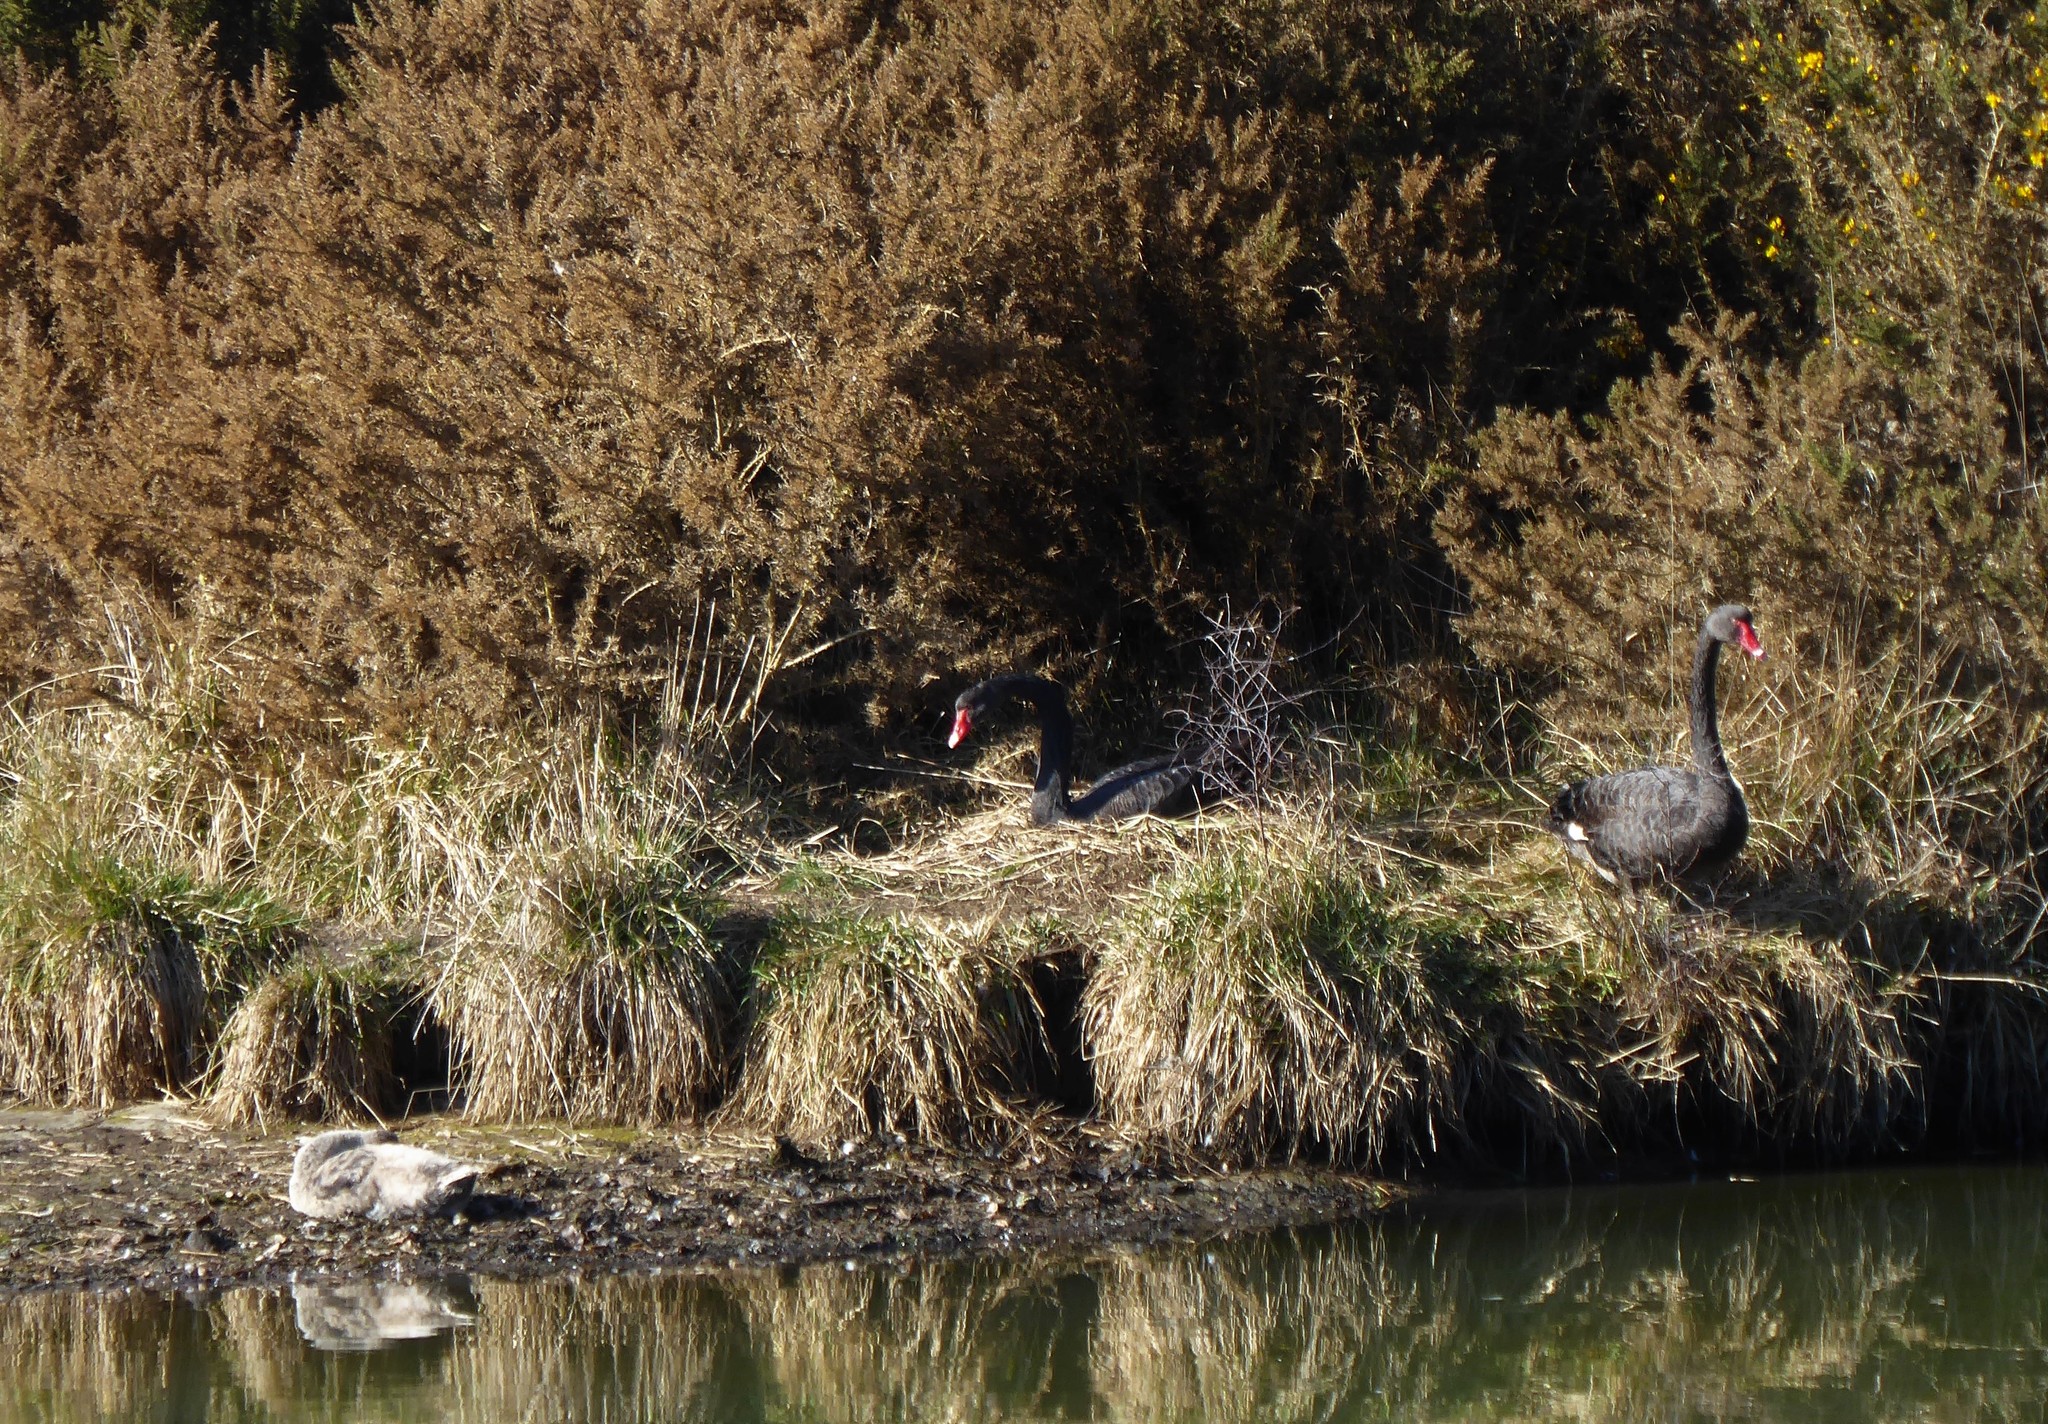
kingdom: Animalia
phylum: Chordata
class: Aves
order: Anseriformes
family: Anatidae
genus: Cygnus
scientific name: Cygnus atratus
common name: Black swan
